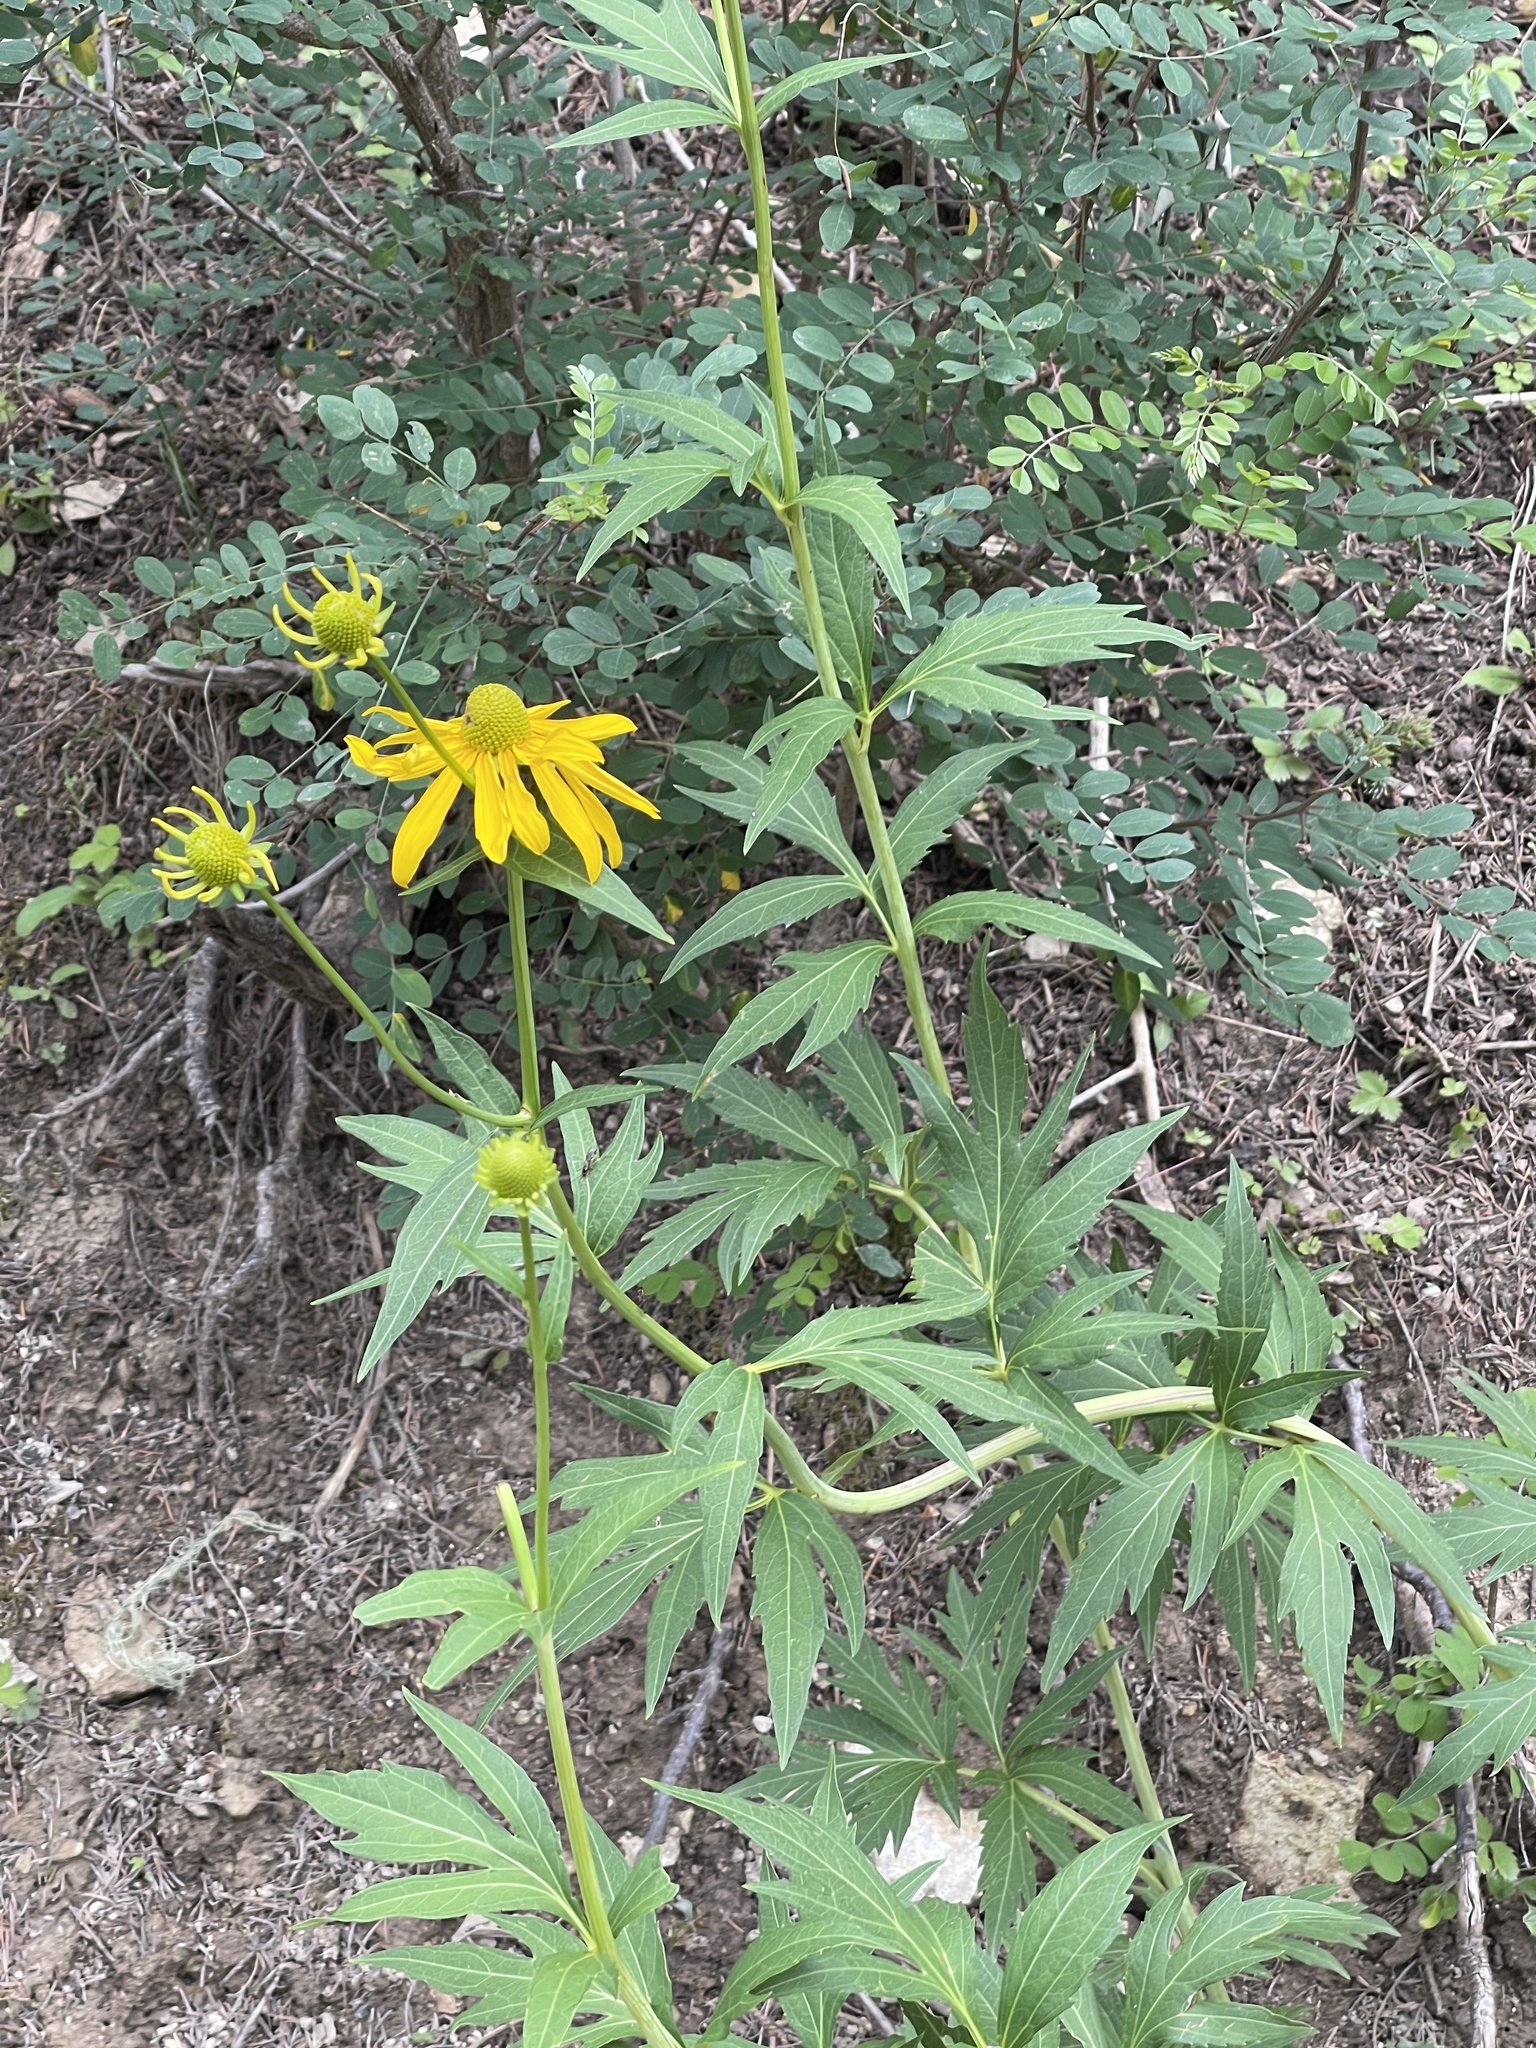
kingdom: Plantae
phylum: Tracheophyta
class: Magnoliopsida
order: Asterales
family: Asteraceae
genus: Rudbeckia
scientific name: Rudbeckia laciniata
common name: Coneflower
